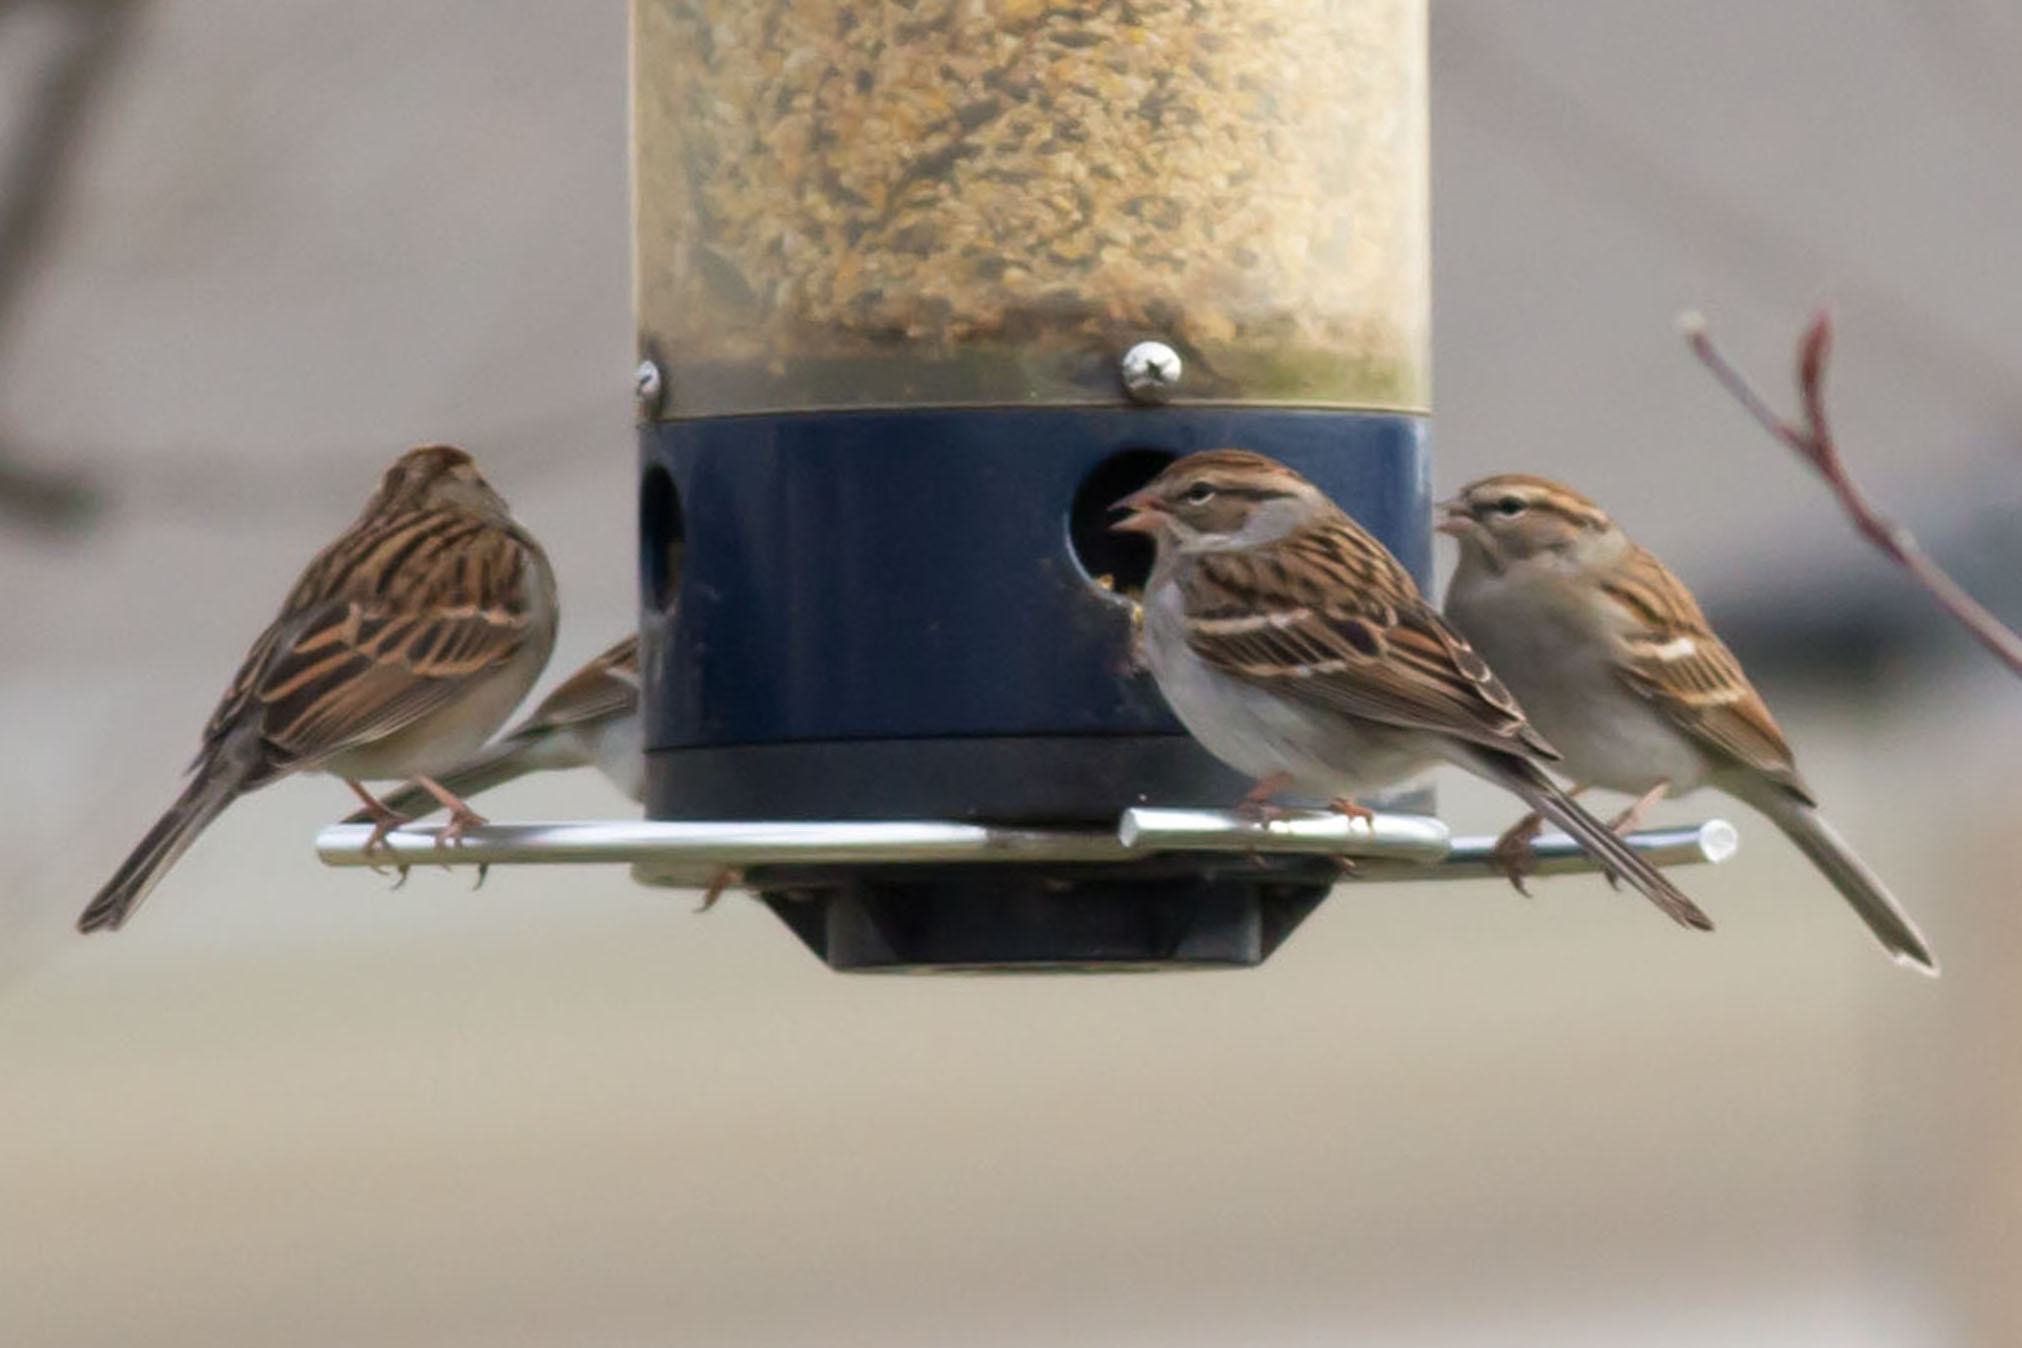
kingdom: Animalia
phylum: Chordata
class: Aves
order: Passeriformes
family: Passerellidae
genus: Spizella
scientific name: Spizella passerina
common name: Chipping sparrow
